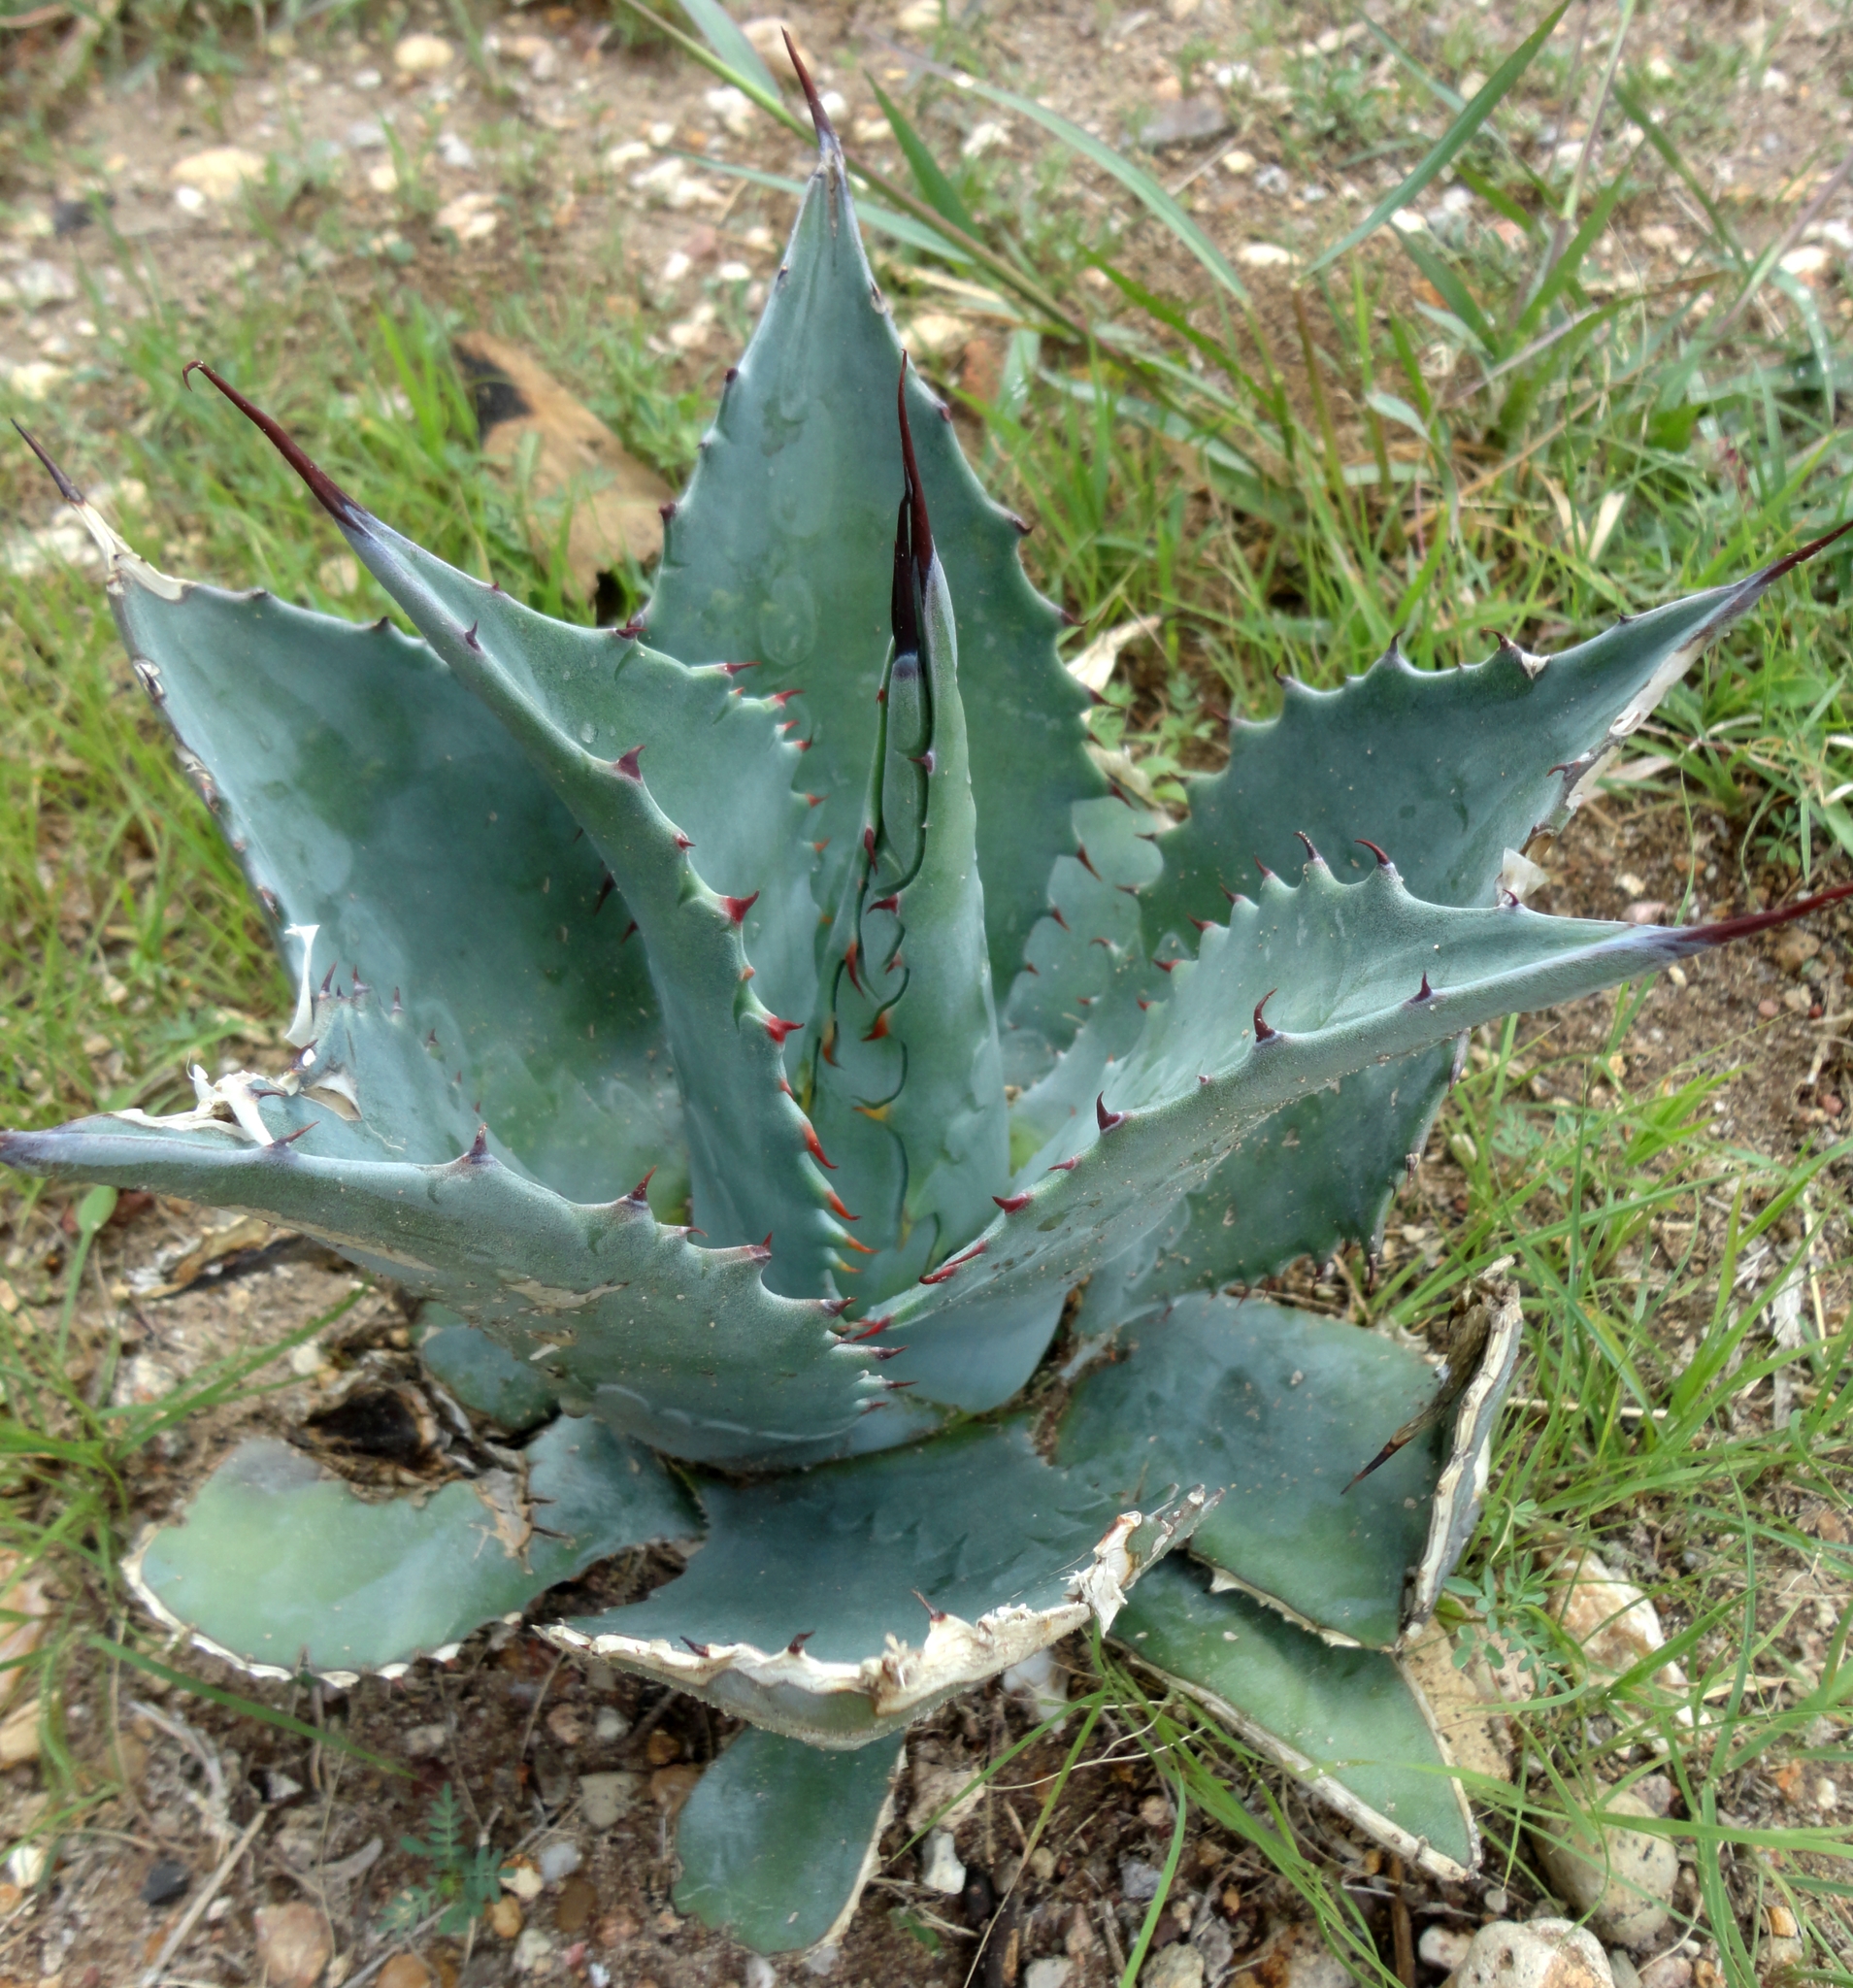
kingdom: Plantae
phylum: Tracheophyta
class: Liliopsida
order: Asparagales
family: Asparagaceae
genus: Agave
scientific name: Agave asperrima
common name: Rough agave
